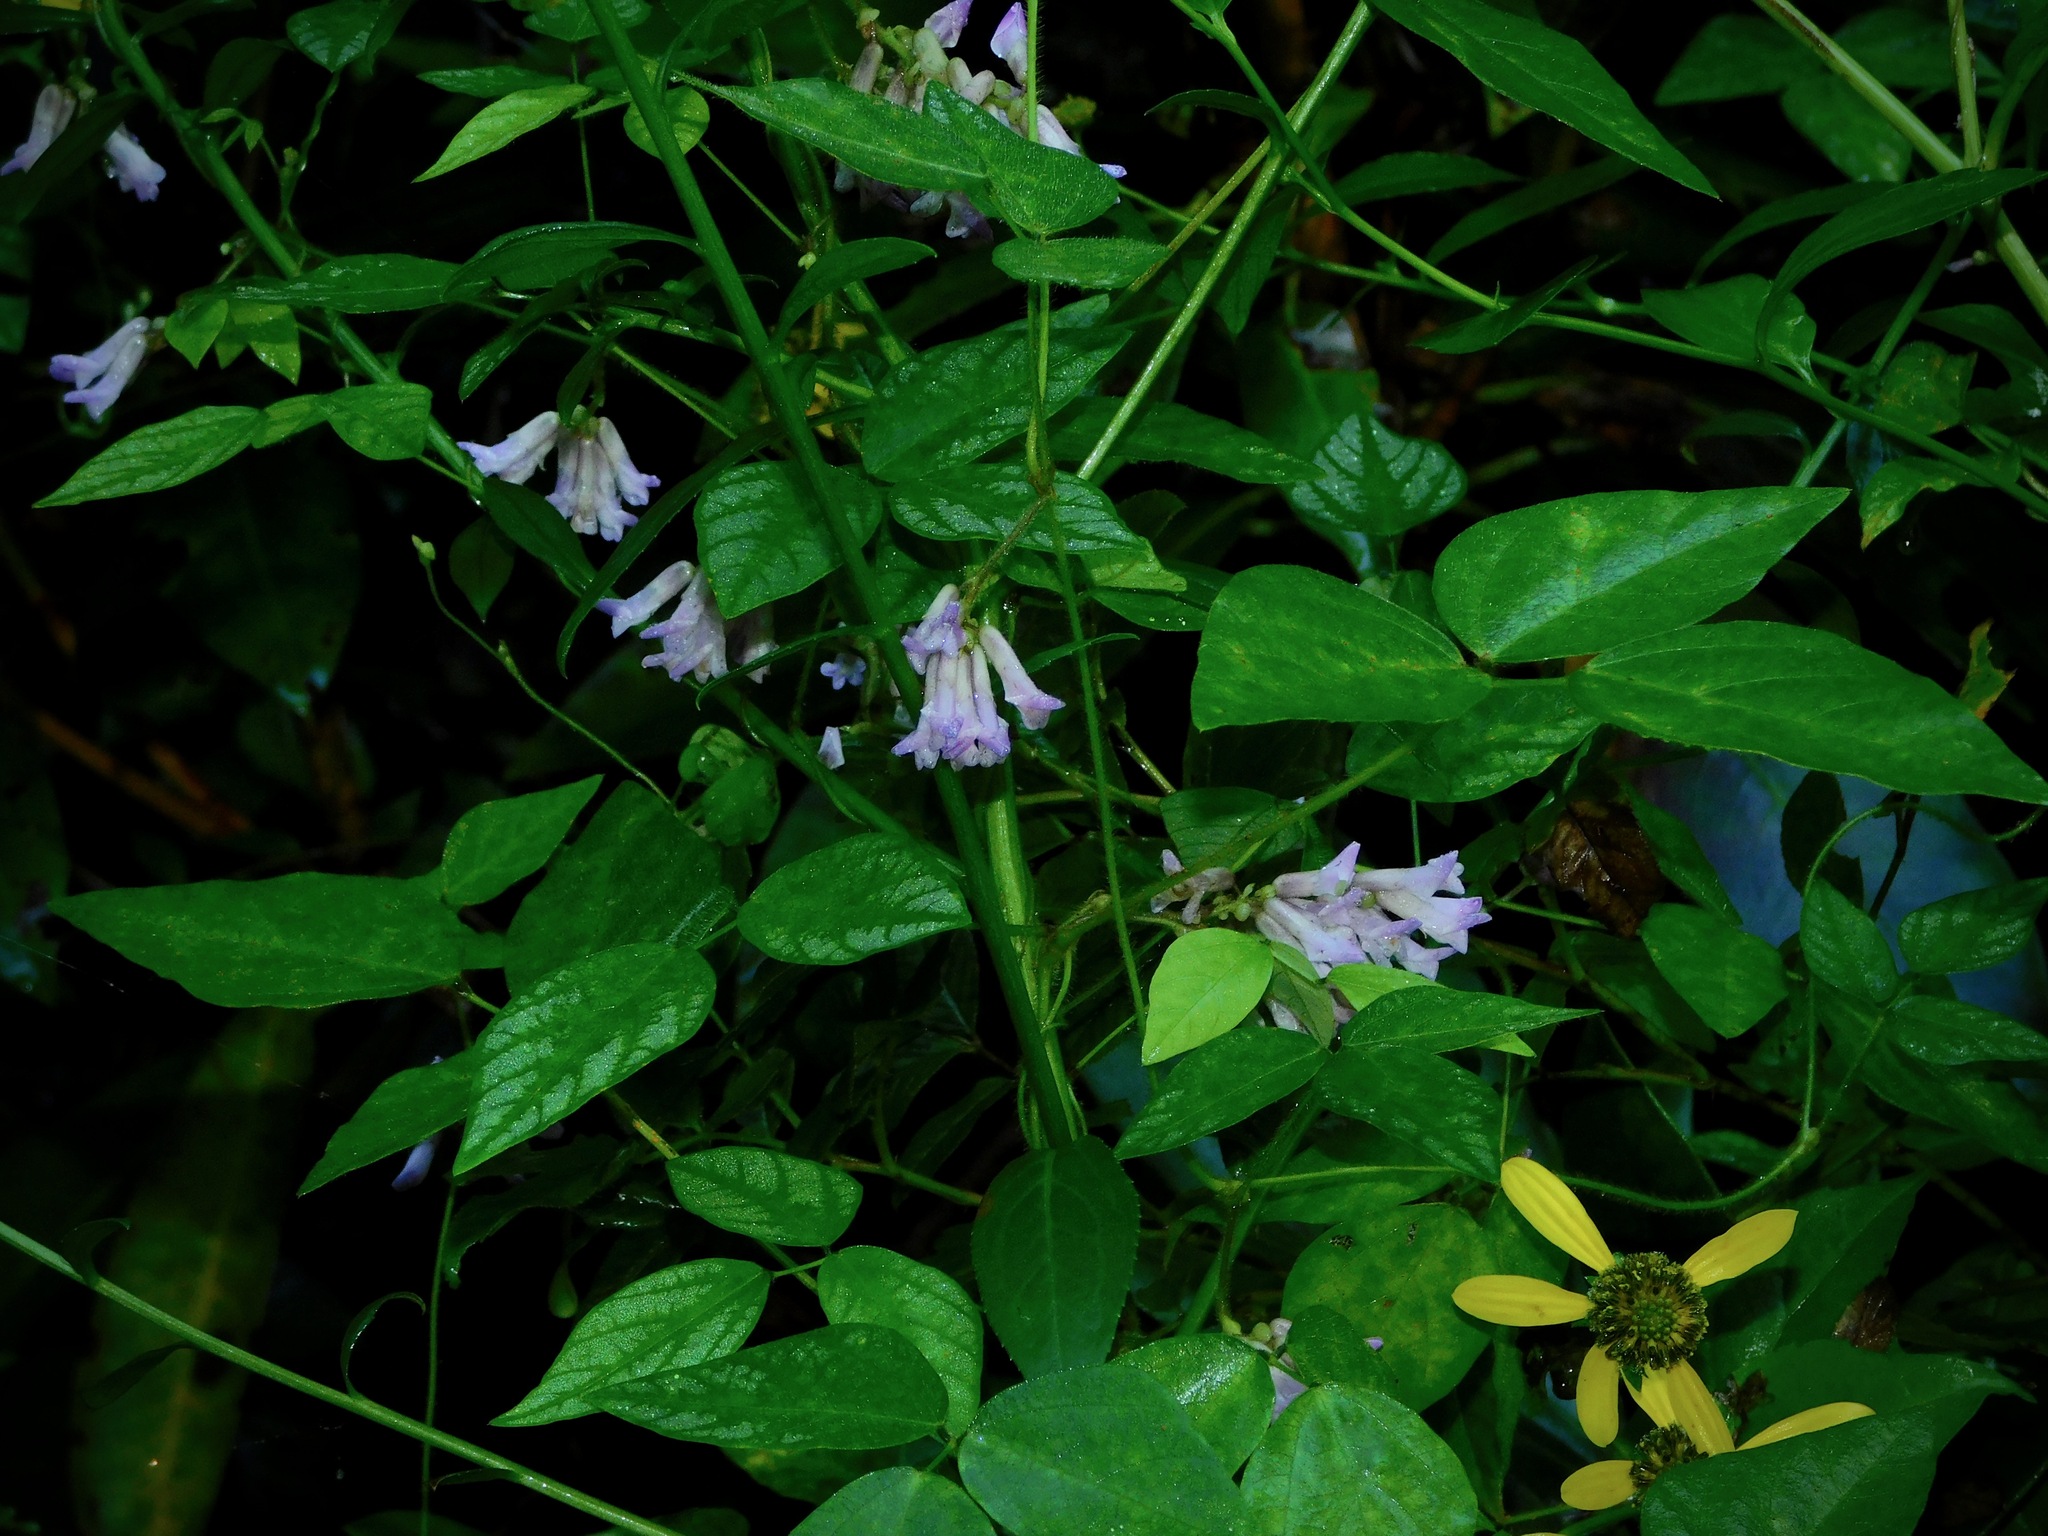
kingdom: Plantae
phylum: Tracheophyta
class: Magnoliopsida
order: Fabales
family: Fabaceae
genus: Amphicarpaea
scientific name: Amphicarpaea bracteata
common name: American hog peanut
